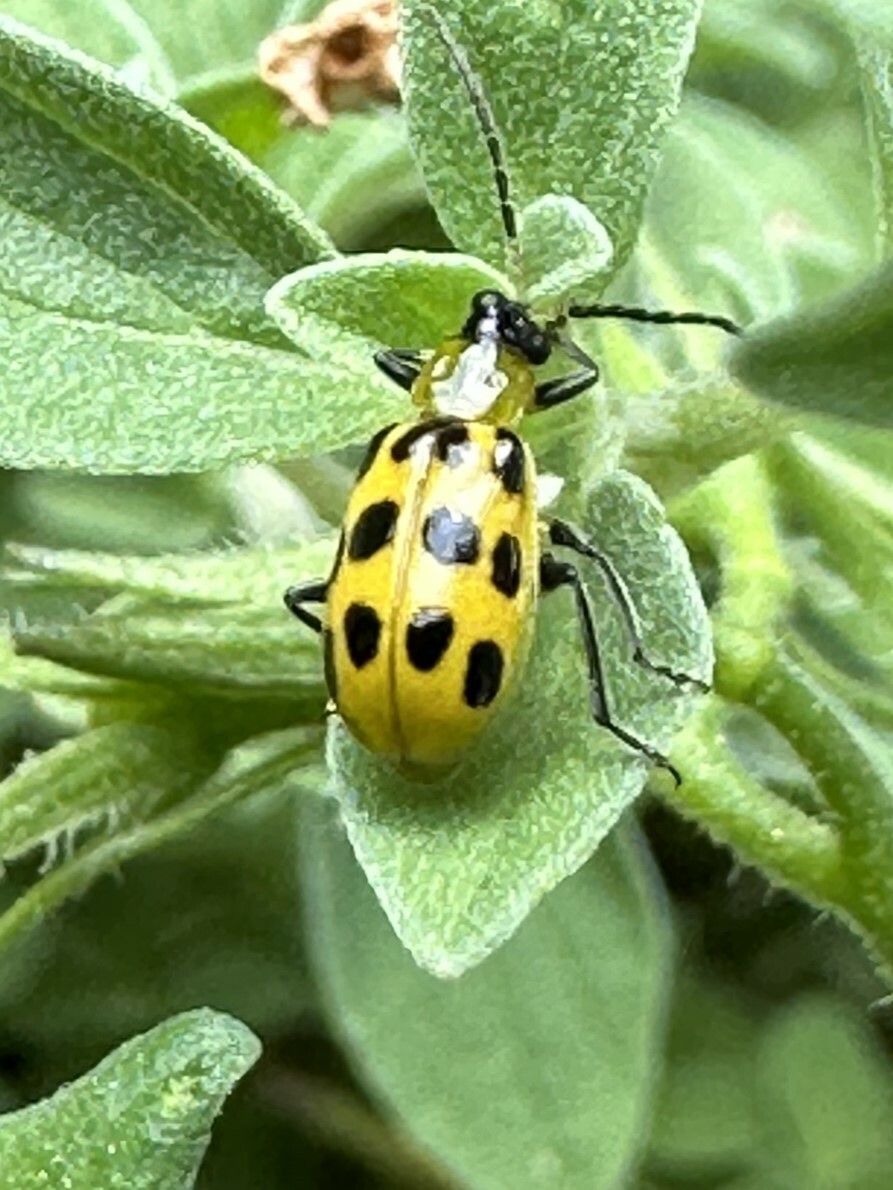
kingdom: Animalia
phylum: Arthropoda
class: Insecta
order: Coleoptera
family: Chrysomelidae
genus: Diabrotica
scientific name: Diabrotica undecimpunctata
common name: Spotted cucumber beetle
